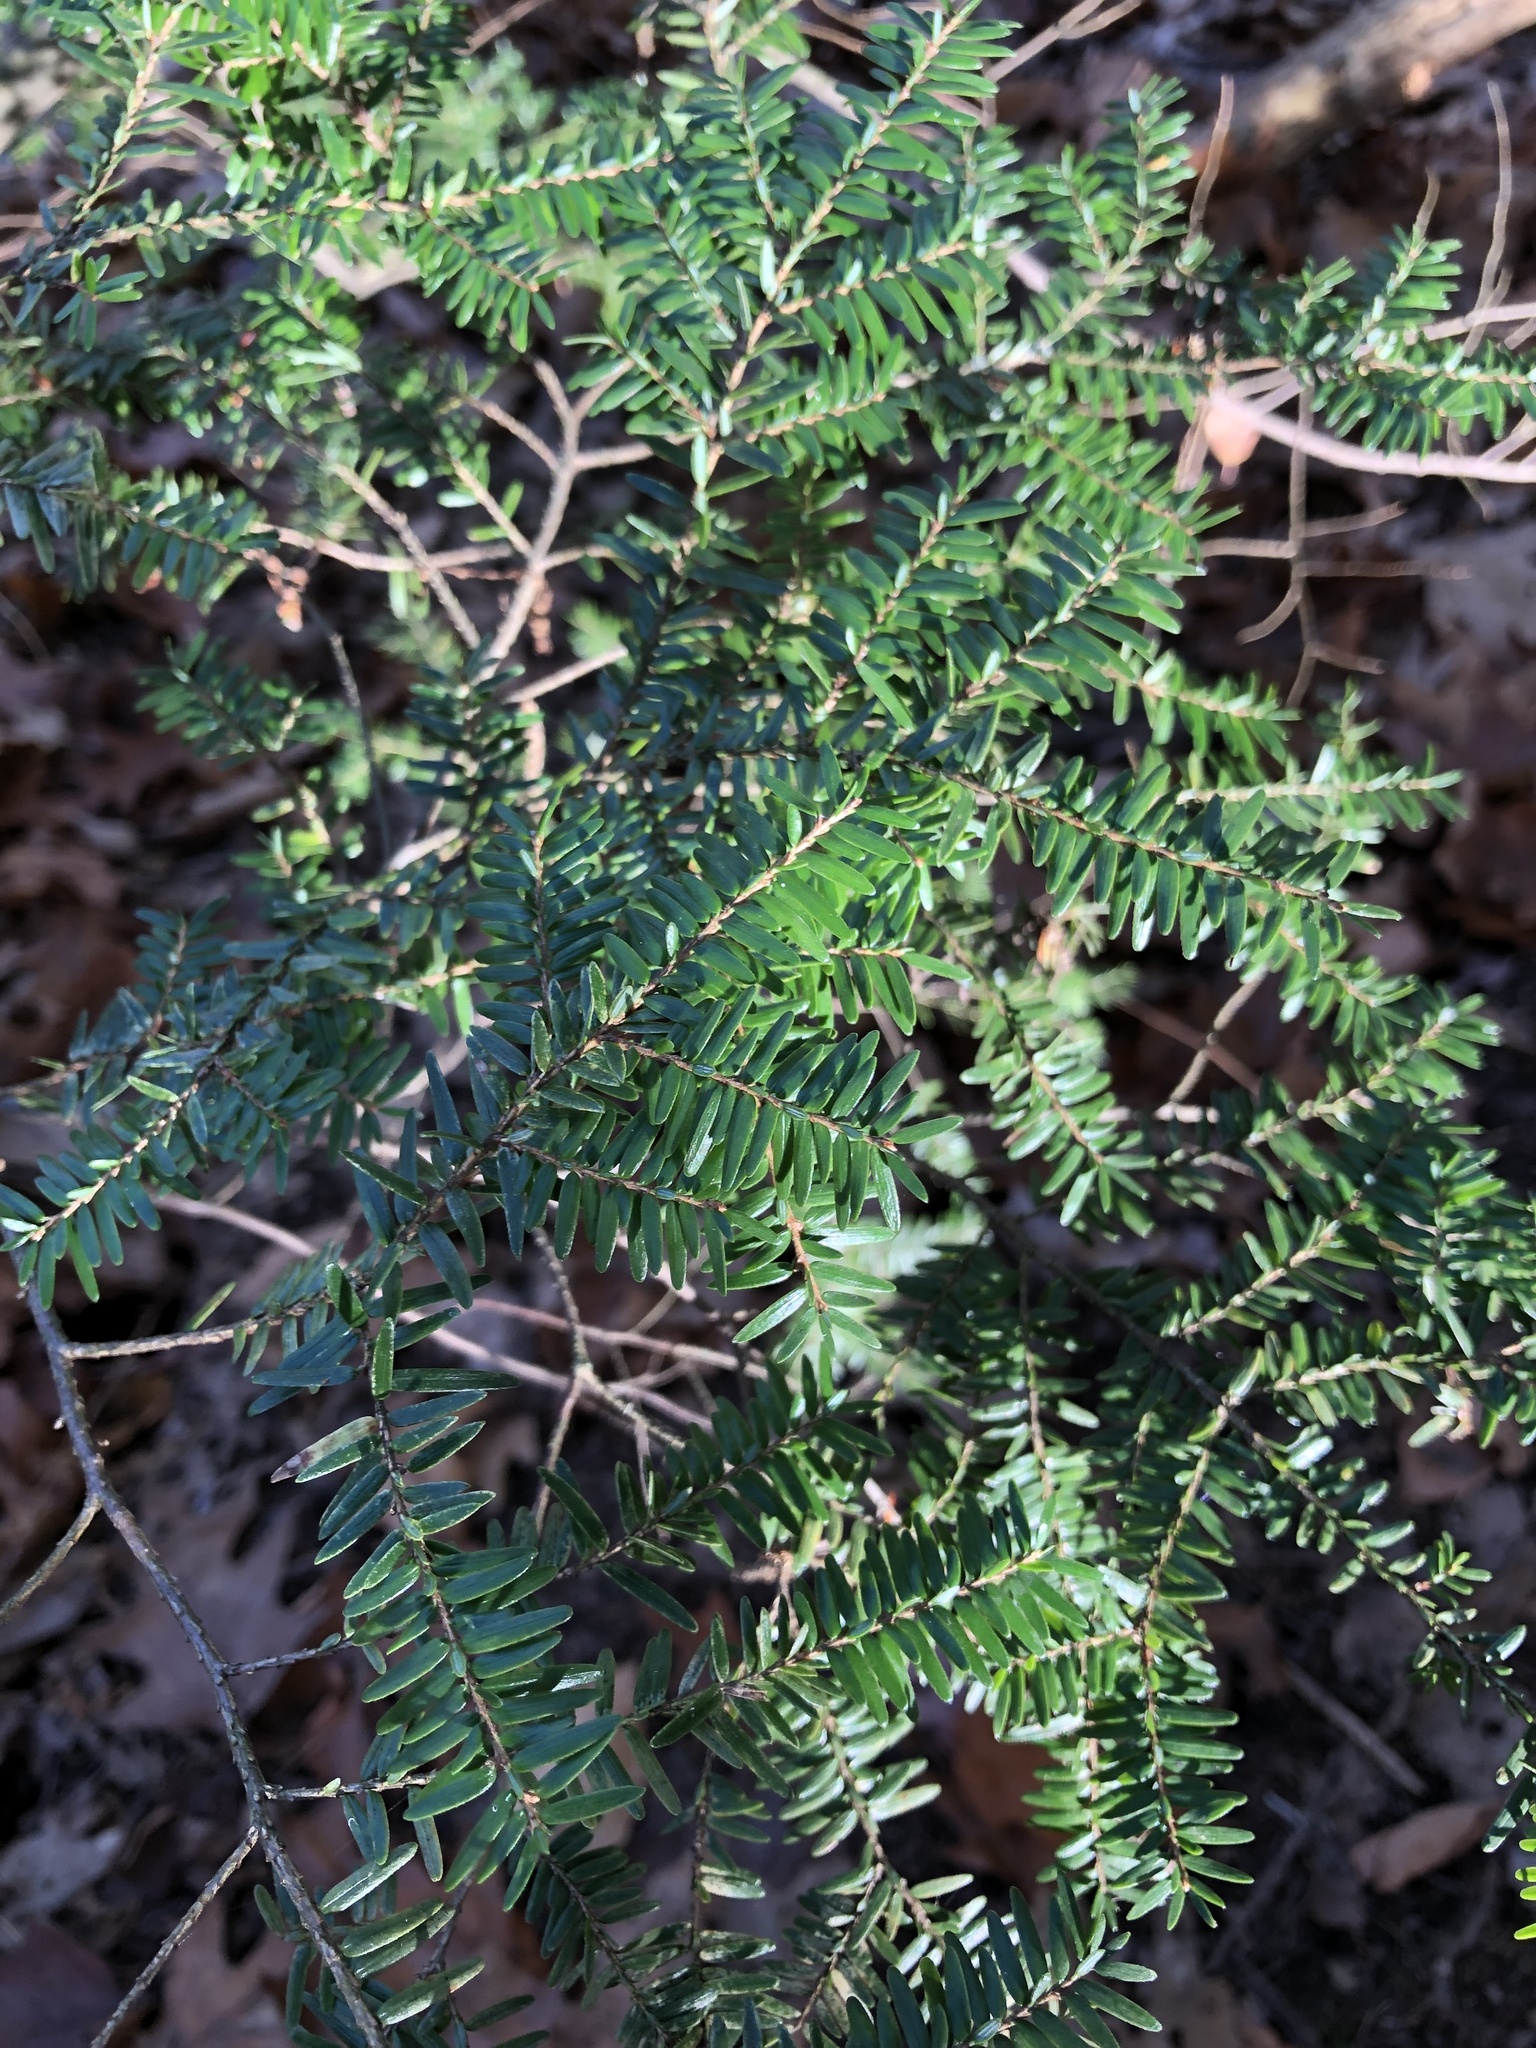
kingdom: Plantae
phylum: Tracheophyta
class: Pinopsida
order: Pinales
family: Pinaceae
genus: Tsuga
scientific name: Tsuga canadensis
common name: Eastern hemlock
